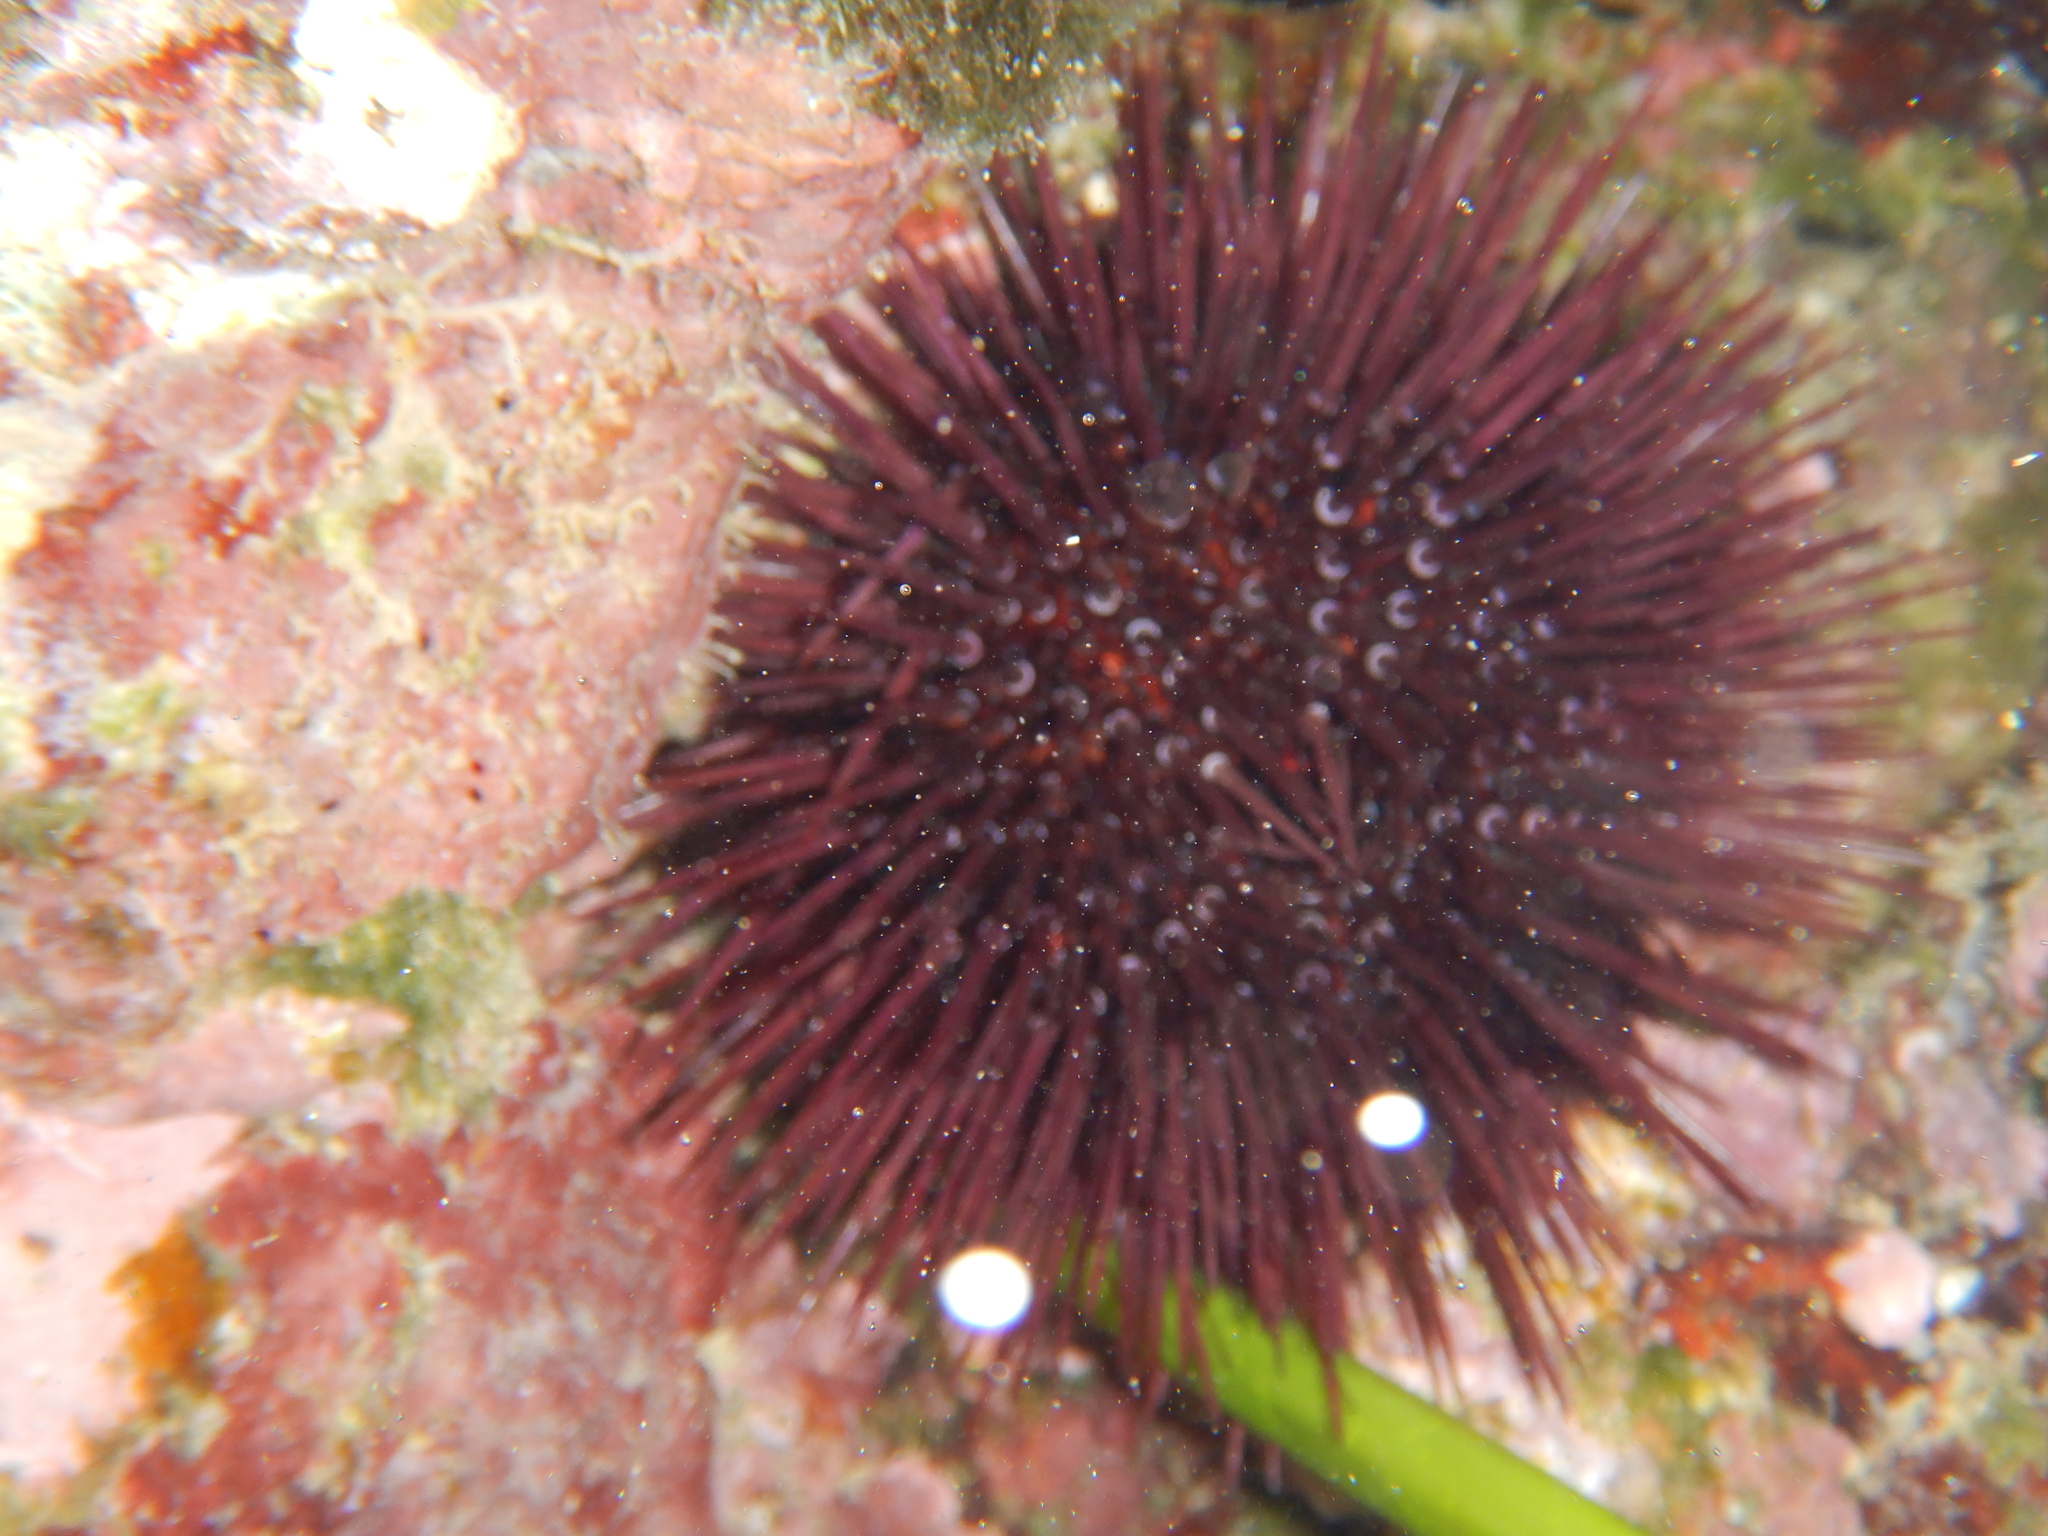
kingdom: Animalia
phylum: Echinodermata
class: Echinoidea
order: Camarodonta
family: Parechinidae
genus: Paracentrotus
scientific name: Paracentrotus lividus
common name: Purple sea urchin
